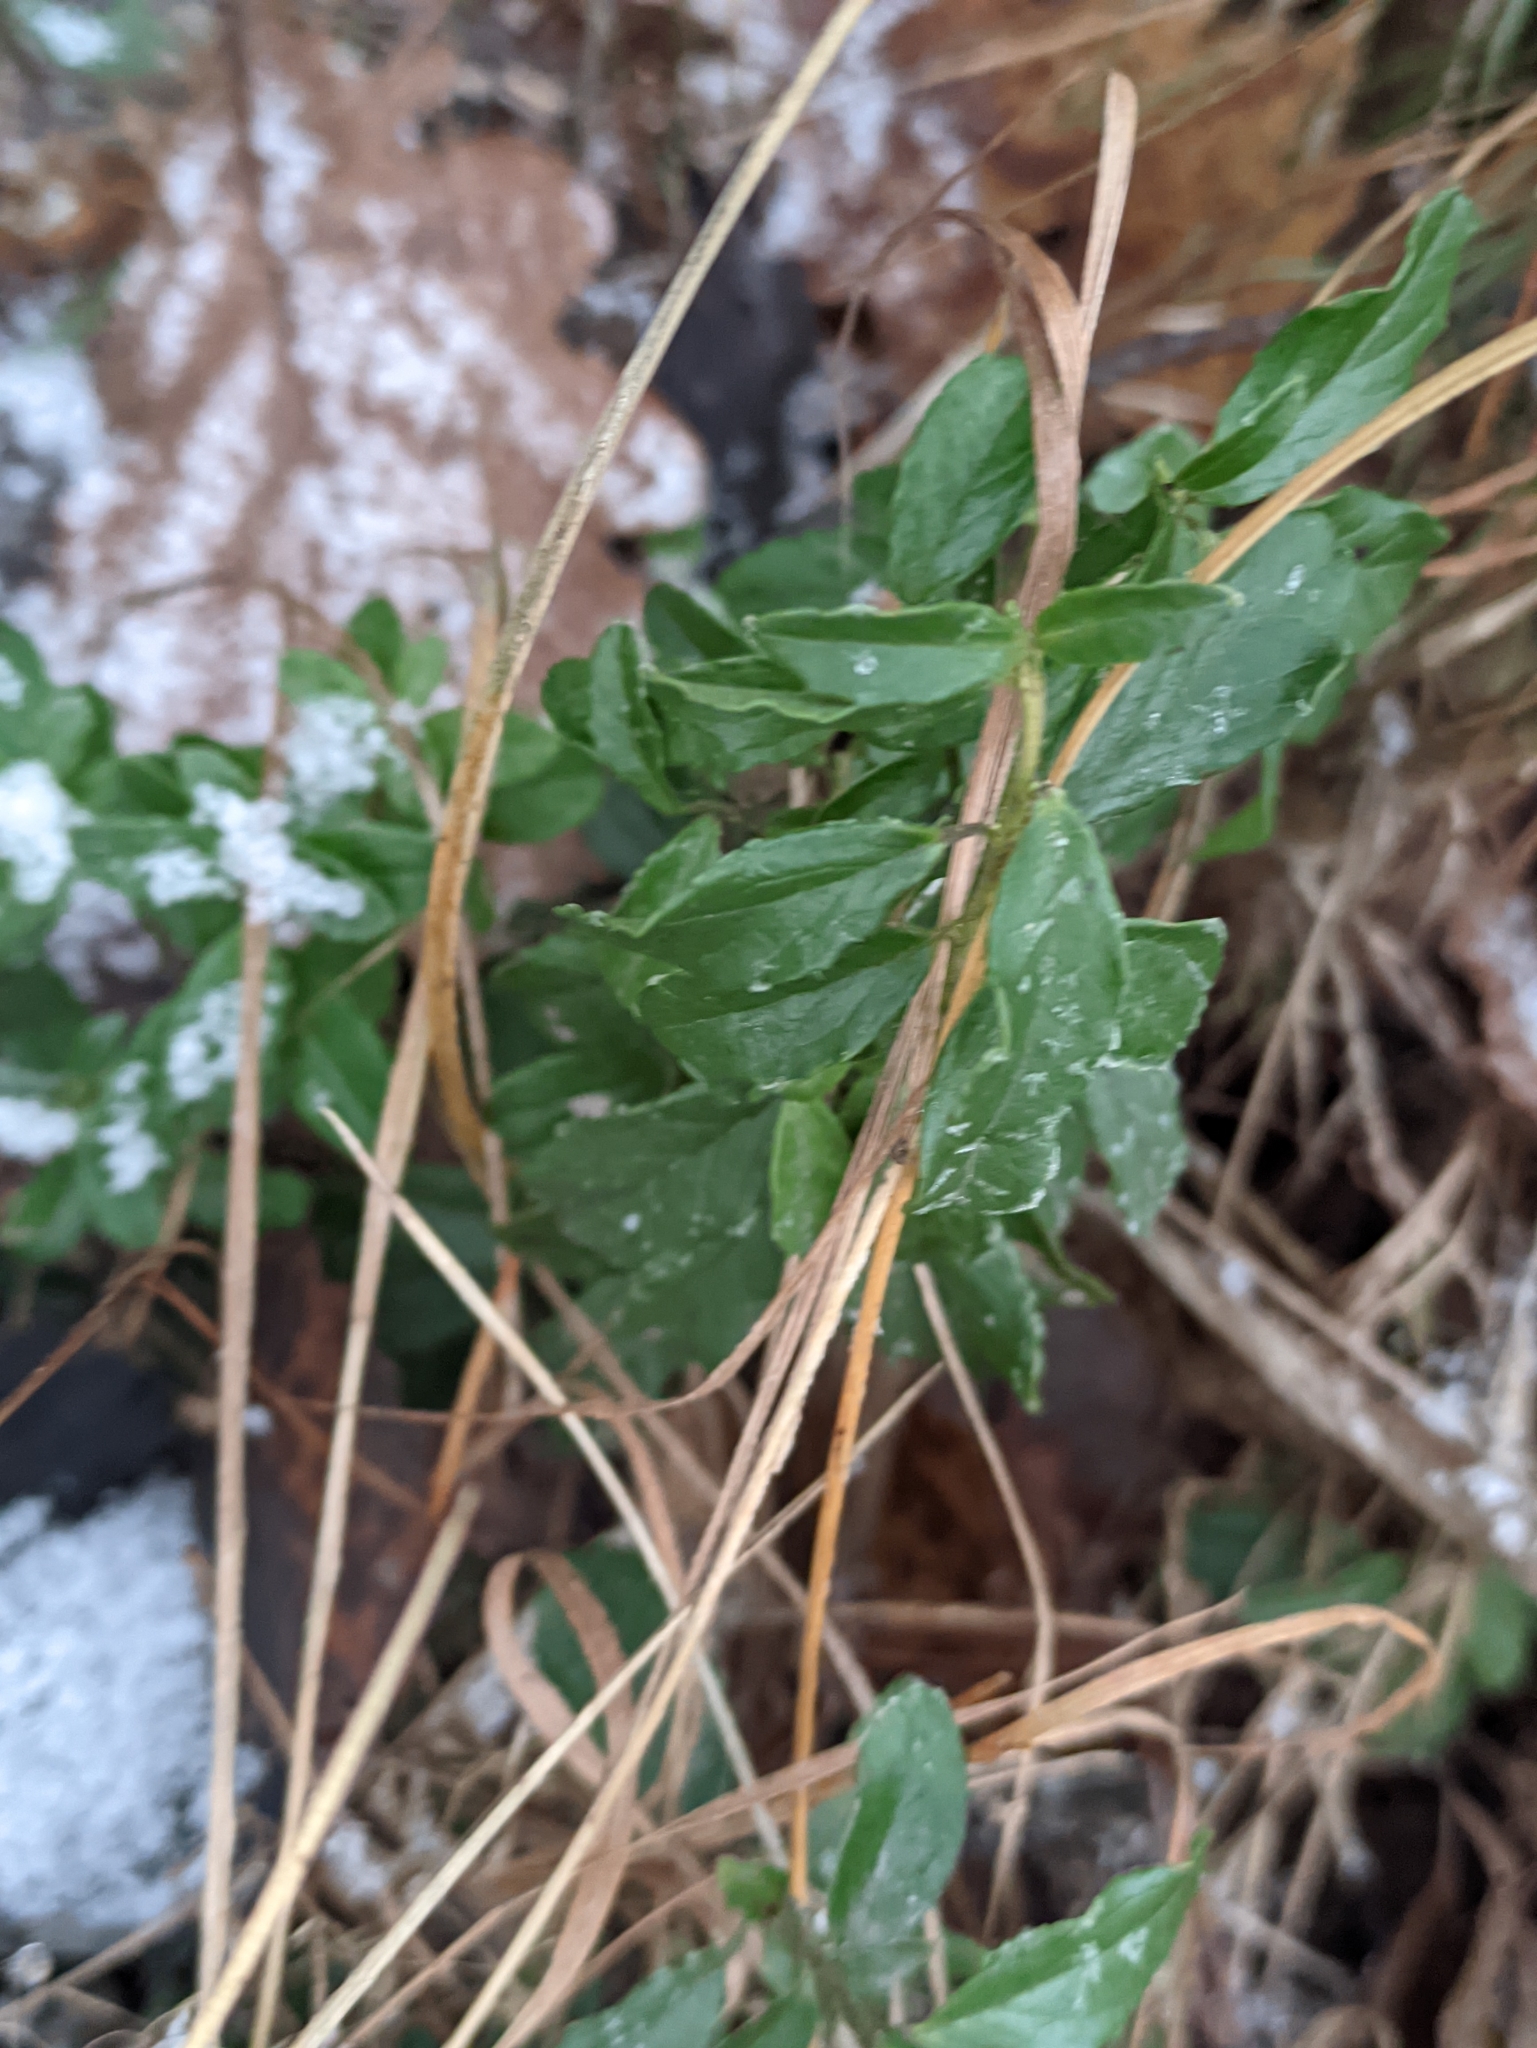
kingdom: Plantae
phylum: Tracheophyta
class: Magnoliopsida
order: Ericales
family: Ericaceae
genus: Vaccinium
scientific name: Vaccinium vitis-idaea
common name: Cowberry
